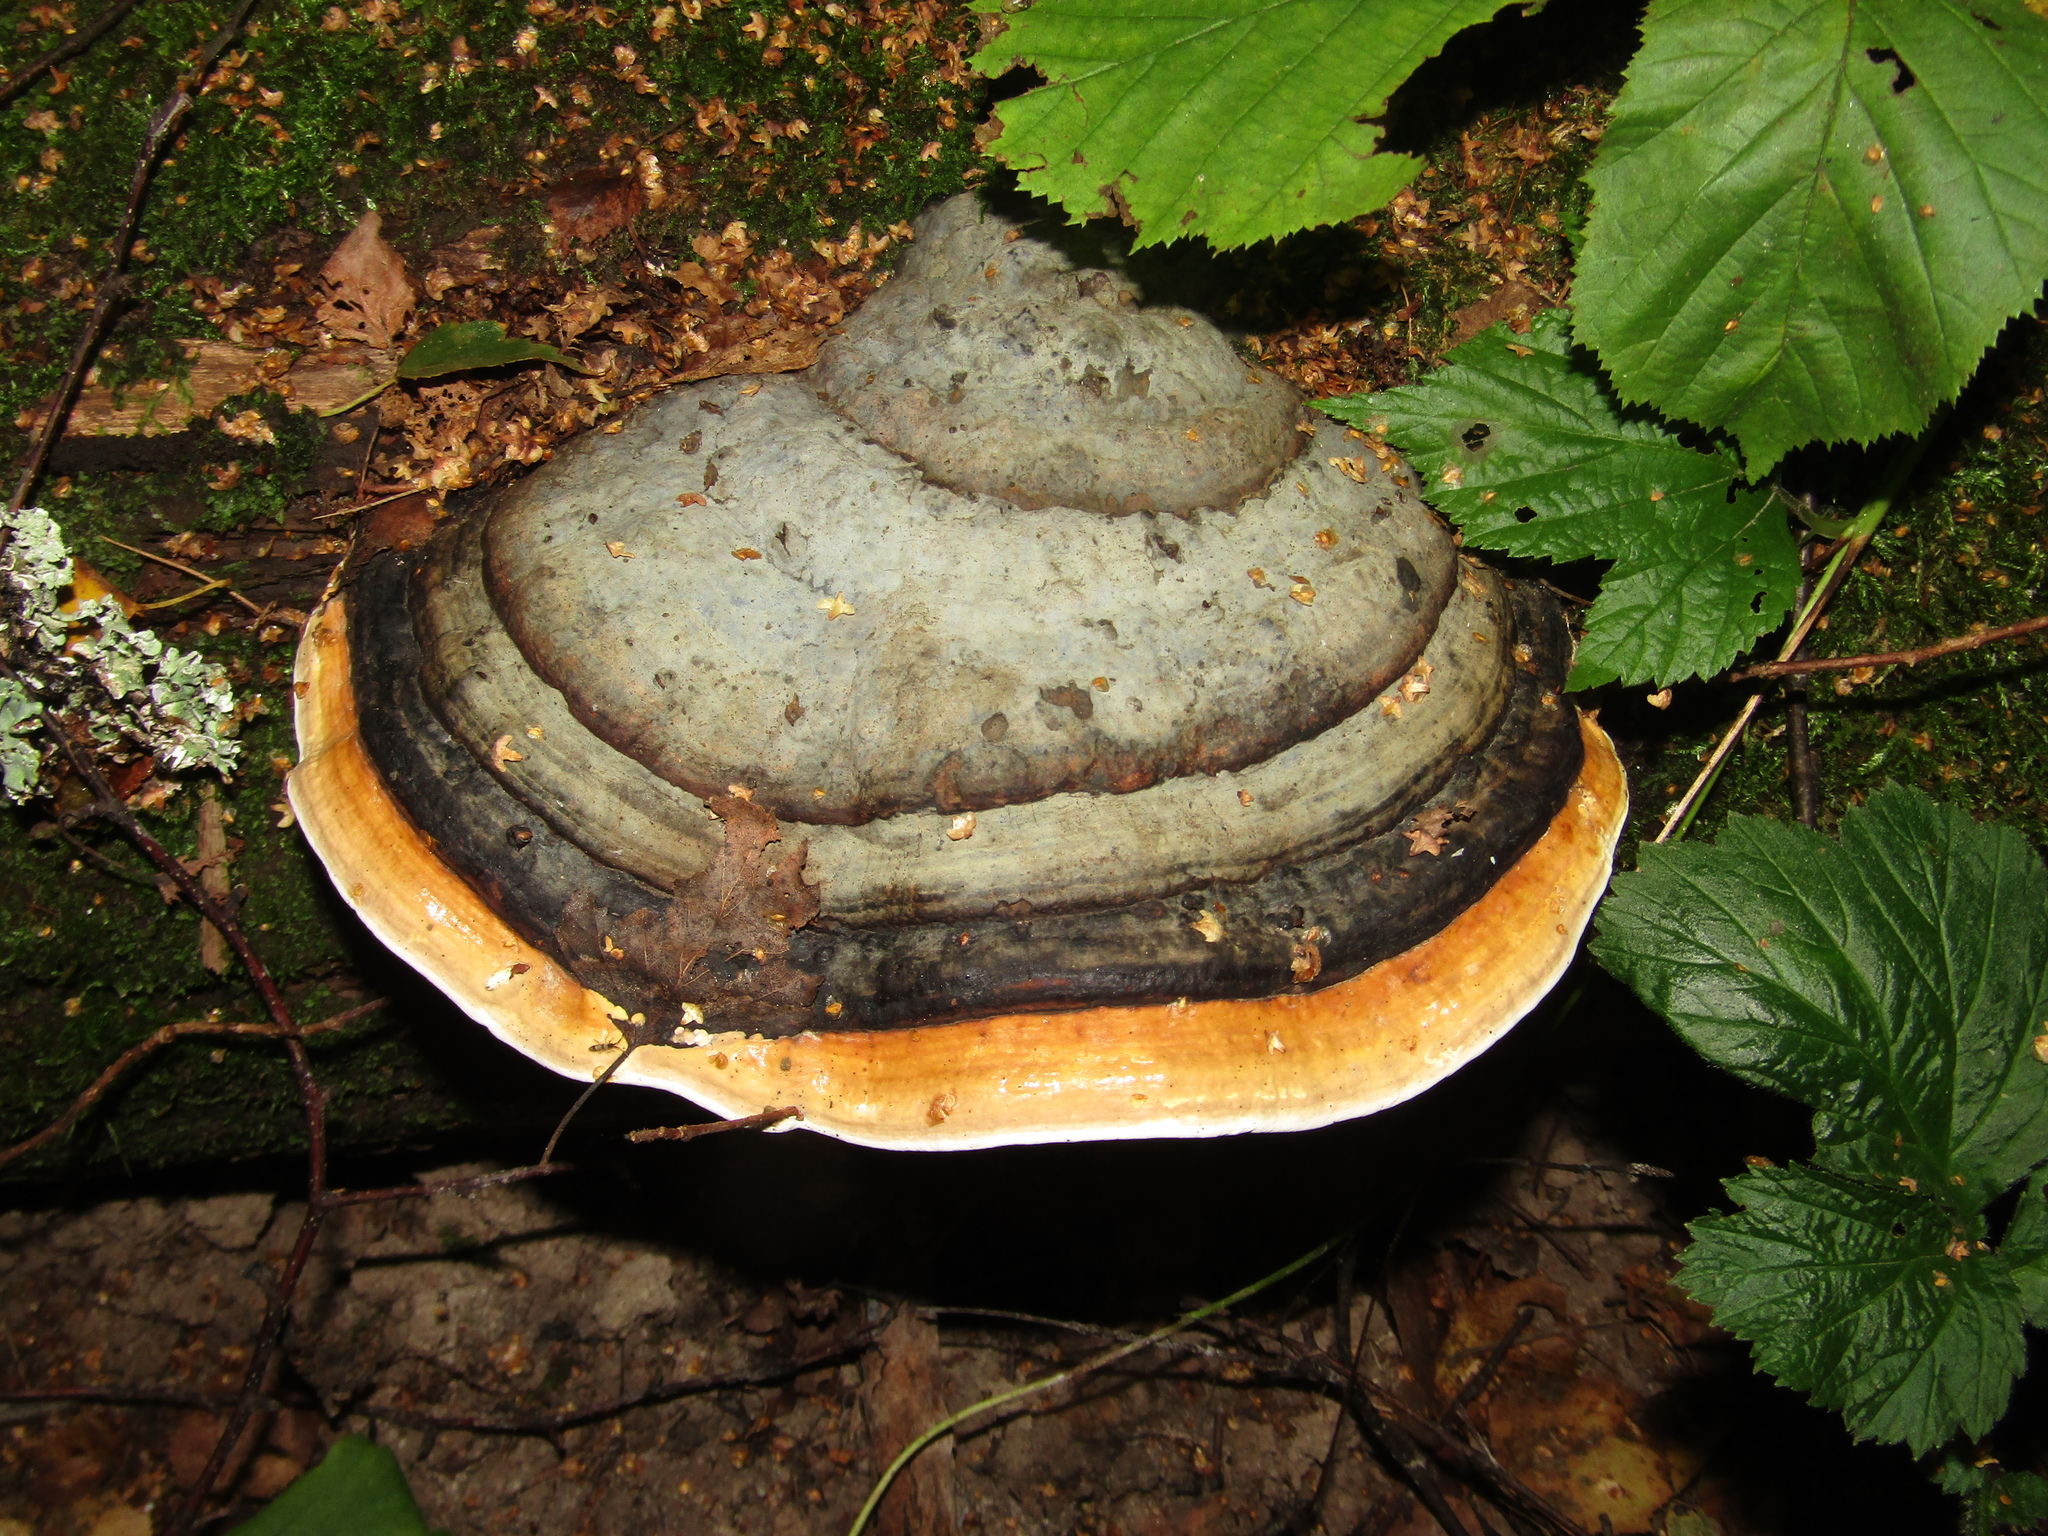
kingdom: Fungi
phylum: Basidiomycota
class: Agaricomycetes
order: Polyporales
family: Fomitopsidaceae
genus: Fomitopsis
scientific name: Fomitopsis pinicola
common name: Red-belted bracket
